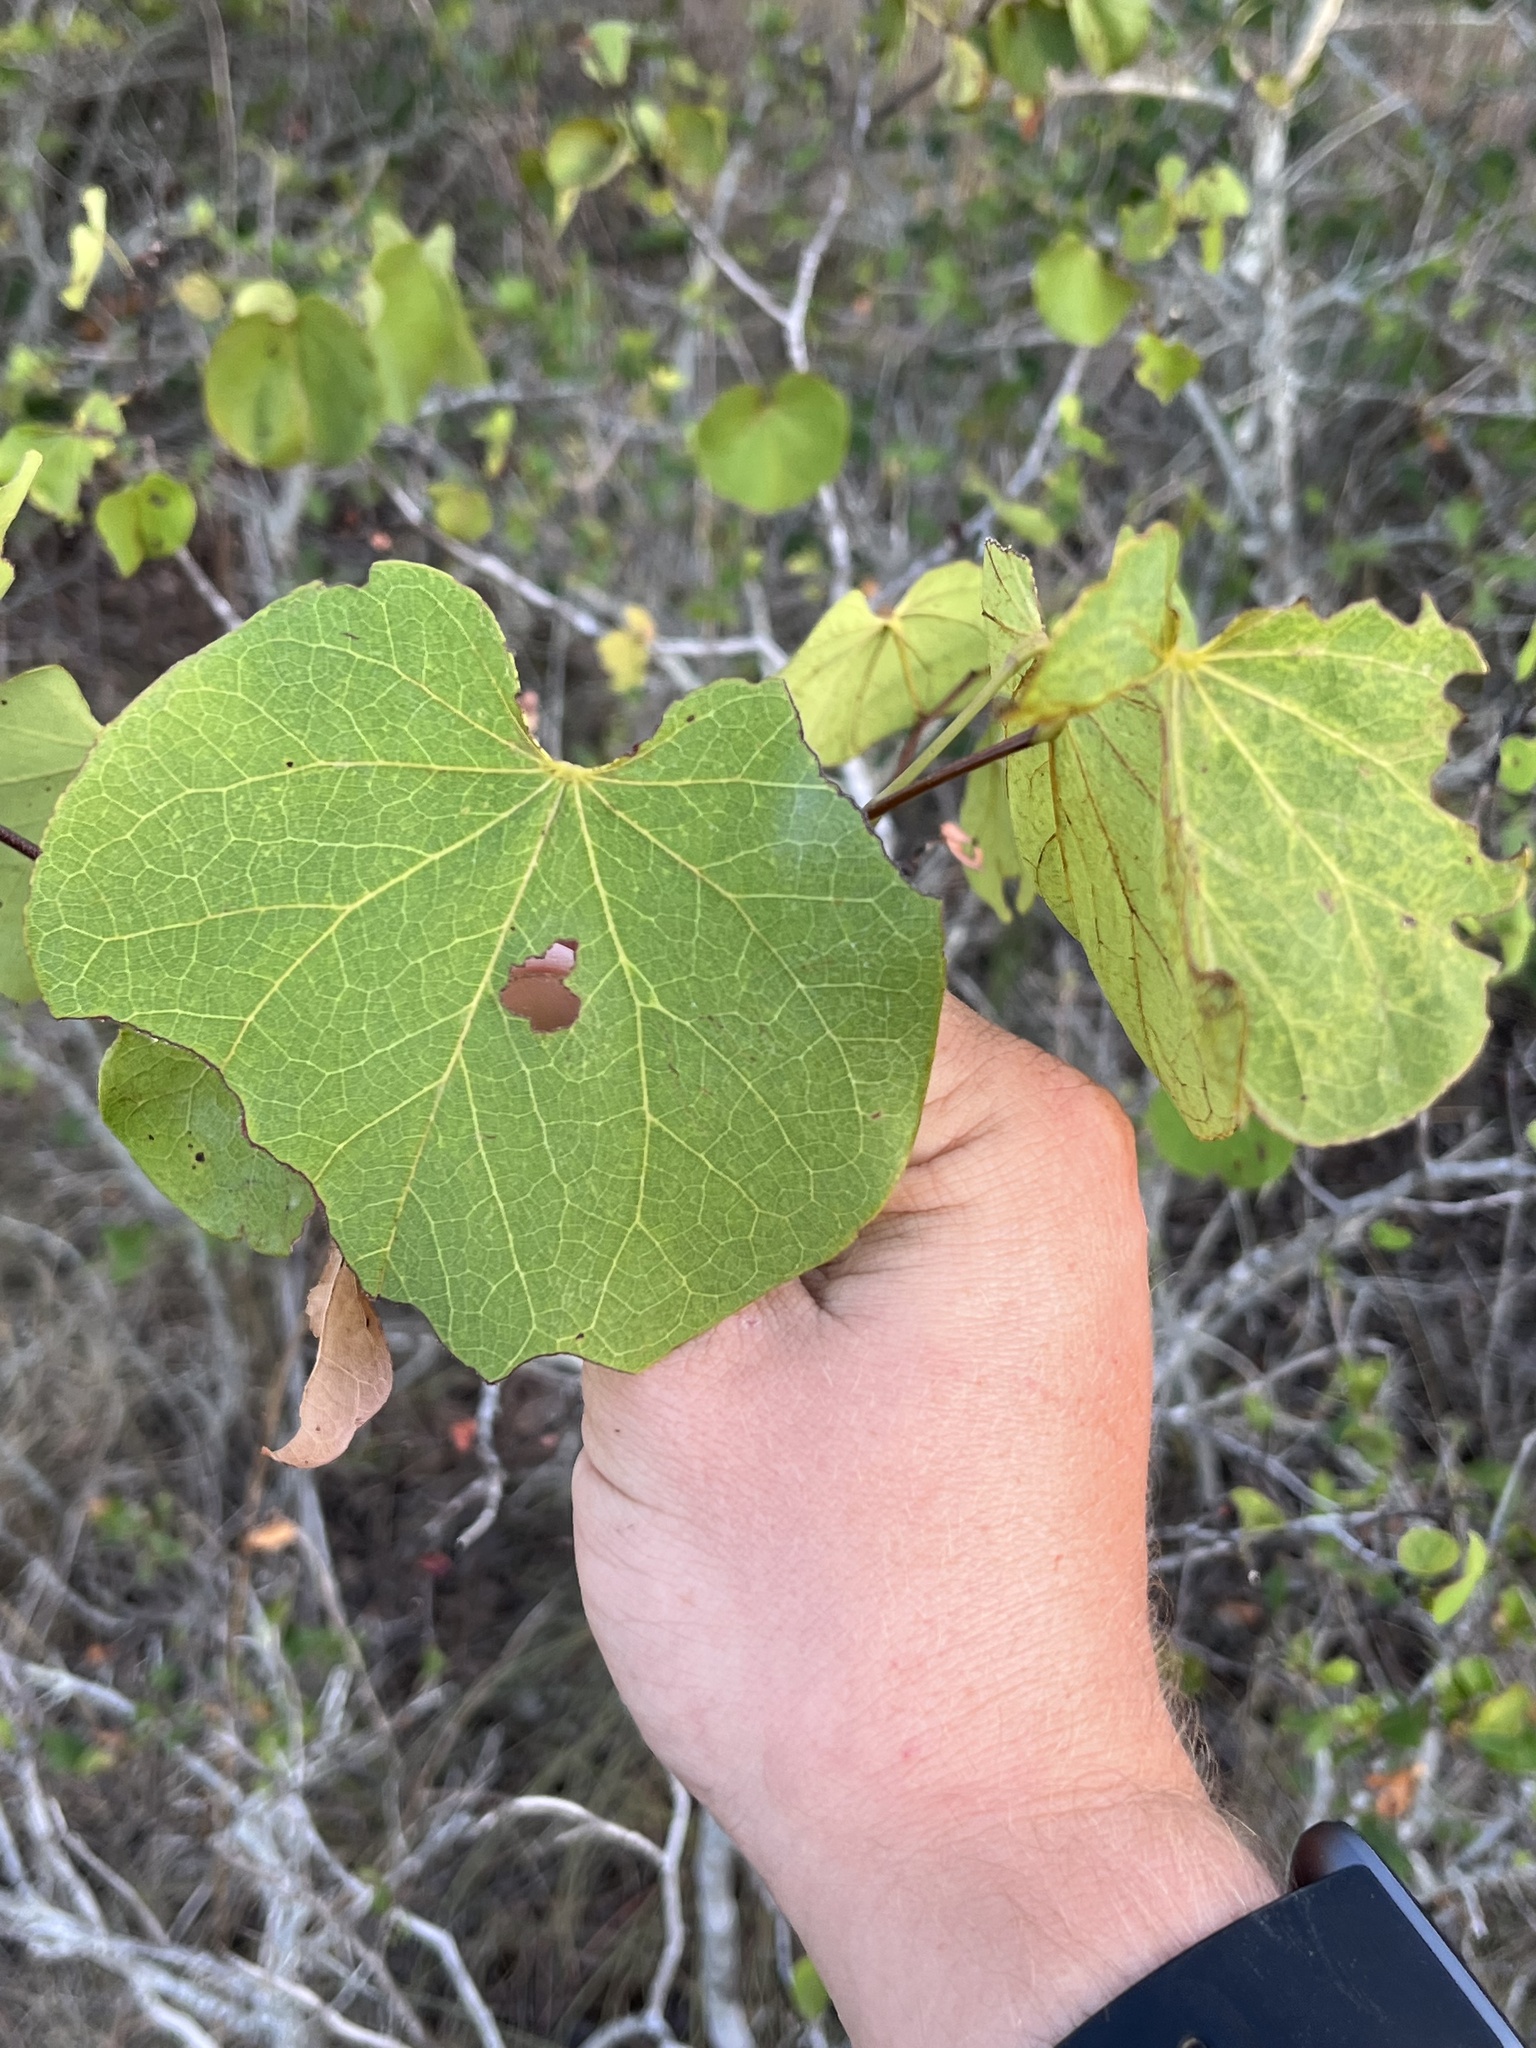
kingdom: Plantae
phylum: Tracheophyta
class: Magnoliopsida
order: Fabales
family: Fabaceae
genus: Cercis
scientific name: Cercis canadensis
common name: Eastern redbud
